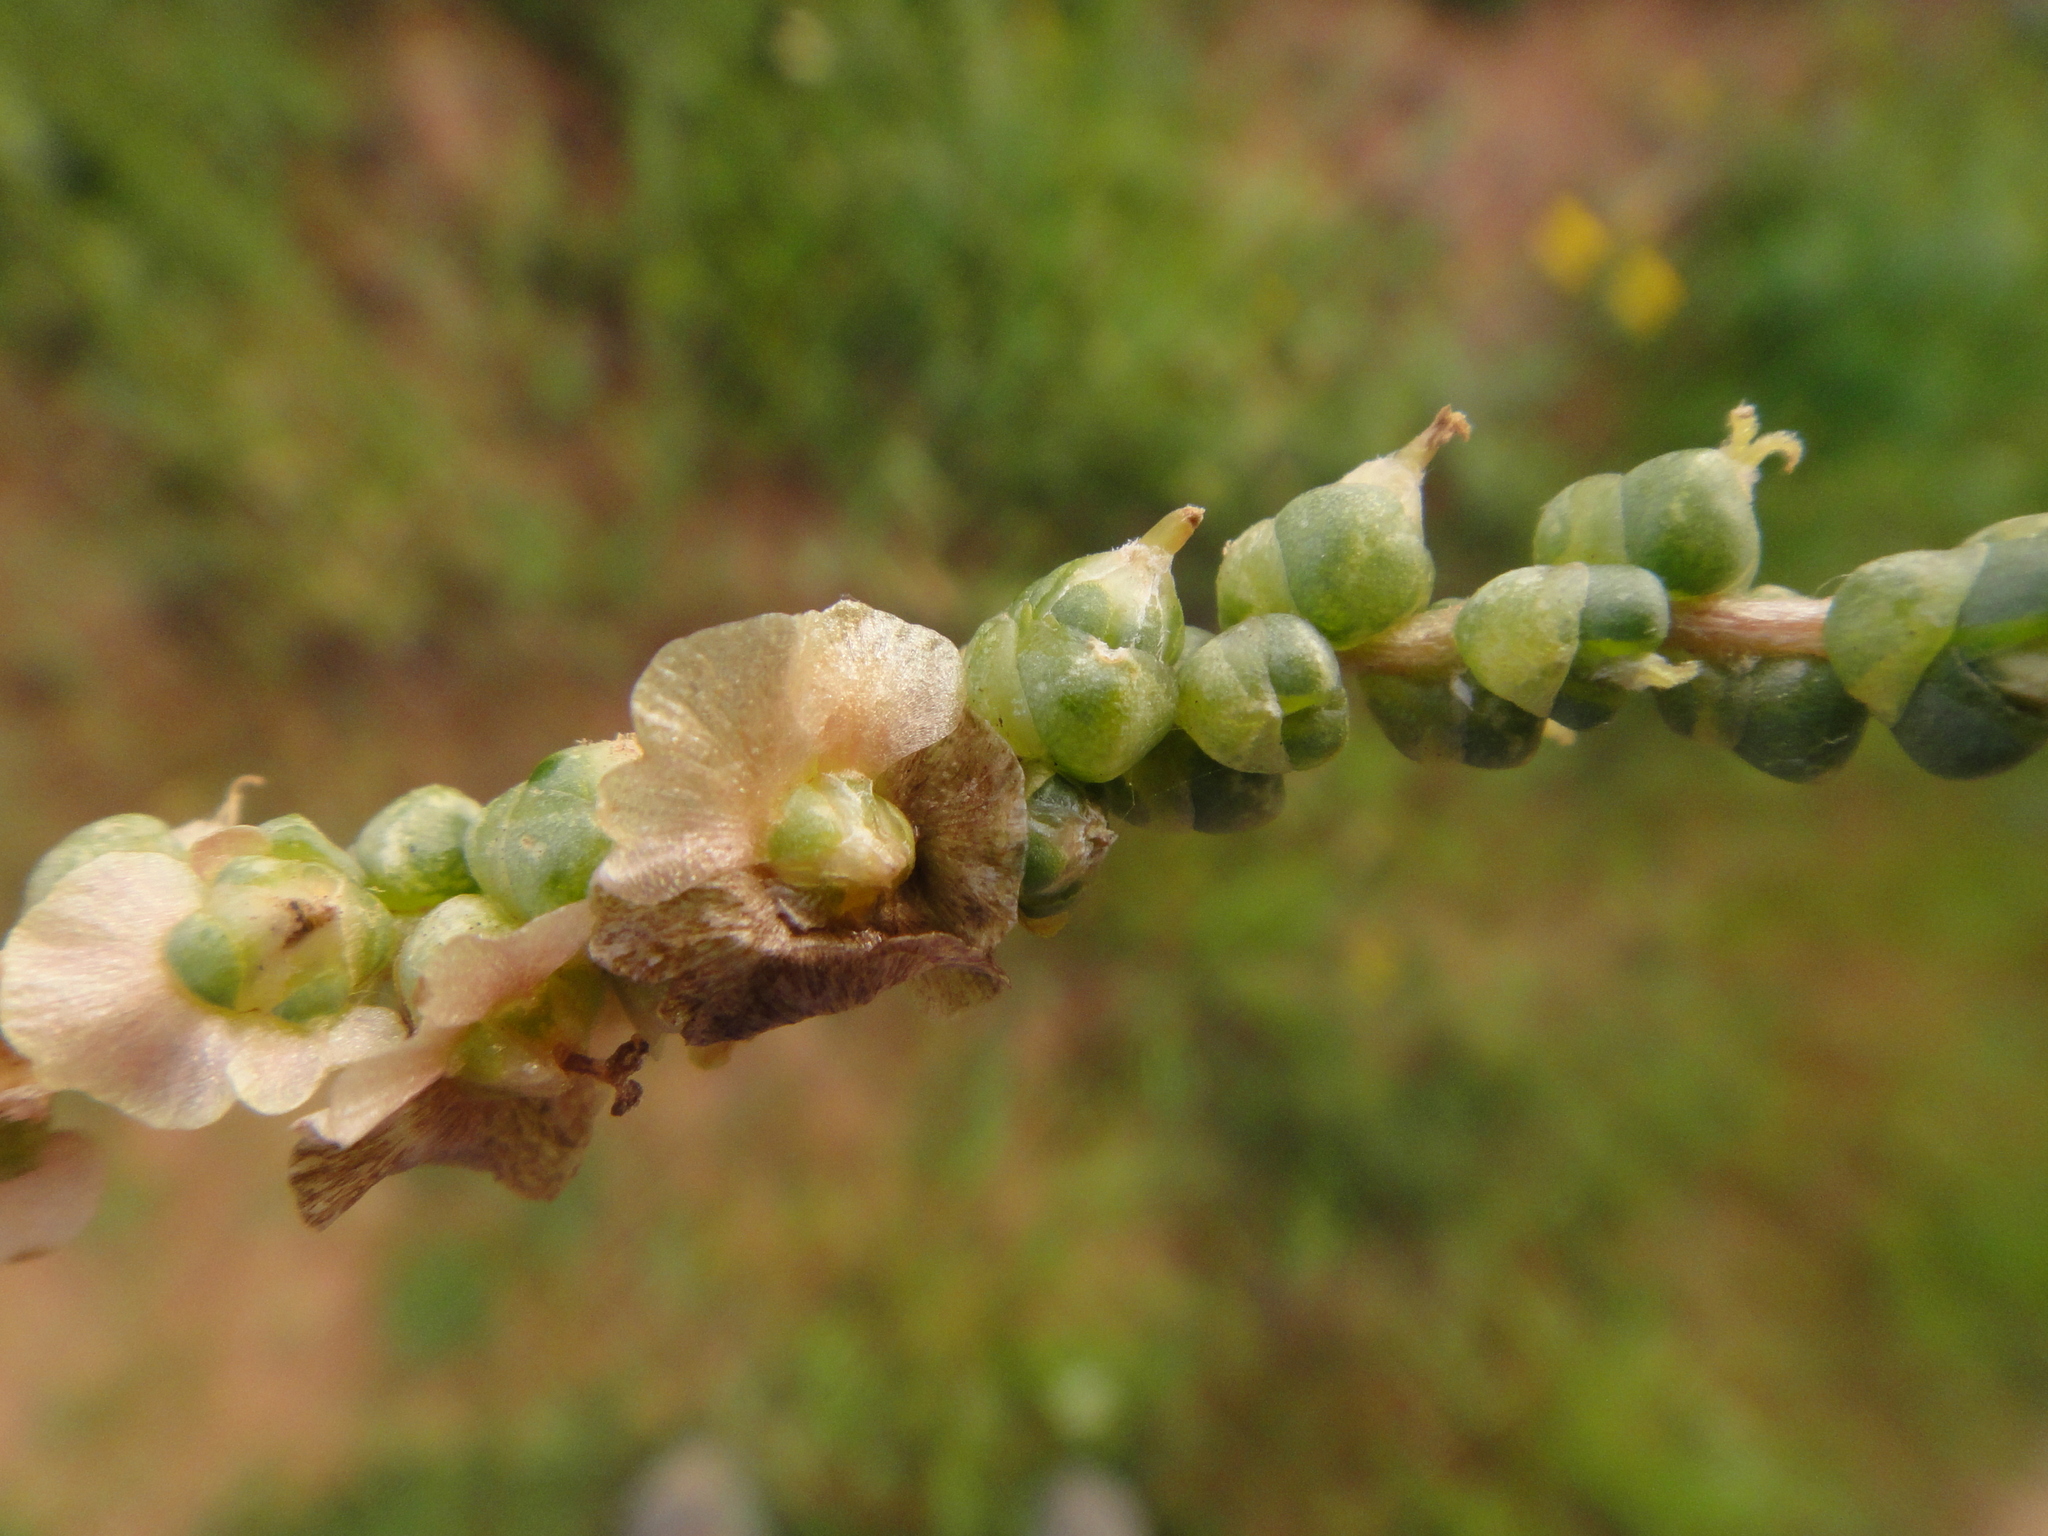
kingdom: Plantae
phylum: Tracheophyta
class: Magnoliopsida
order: Caryophyllales
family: Amaranthaceae
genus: Nitrosalsola
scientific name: Nitrosalsola vermiculata
